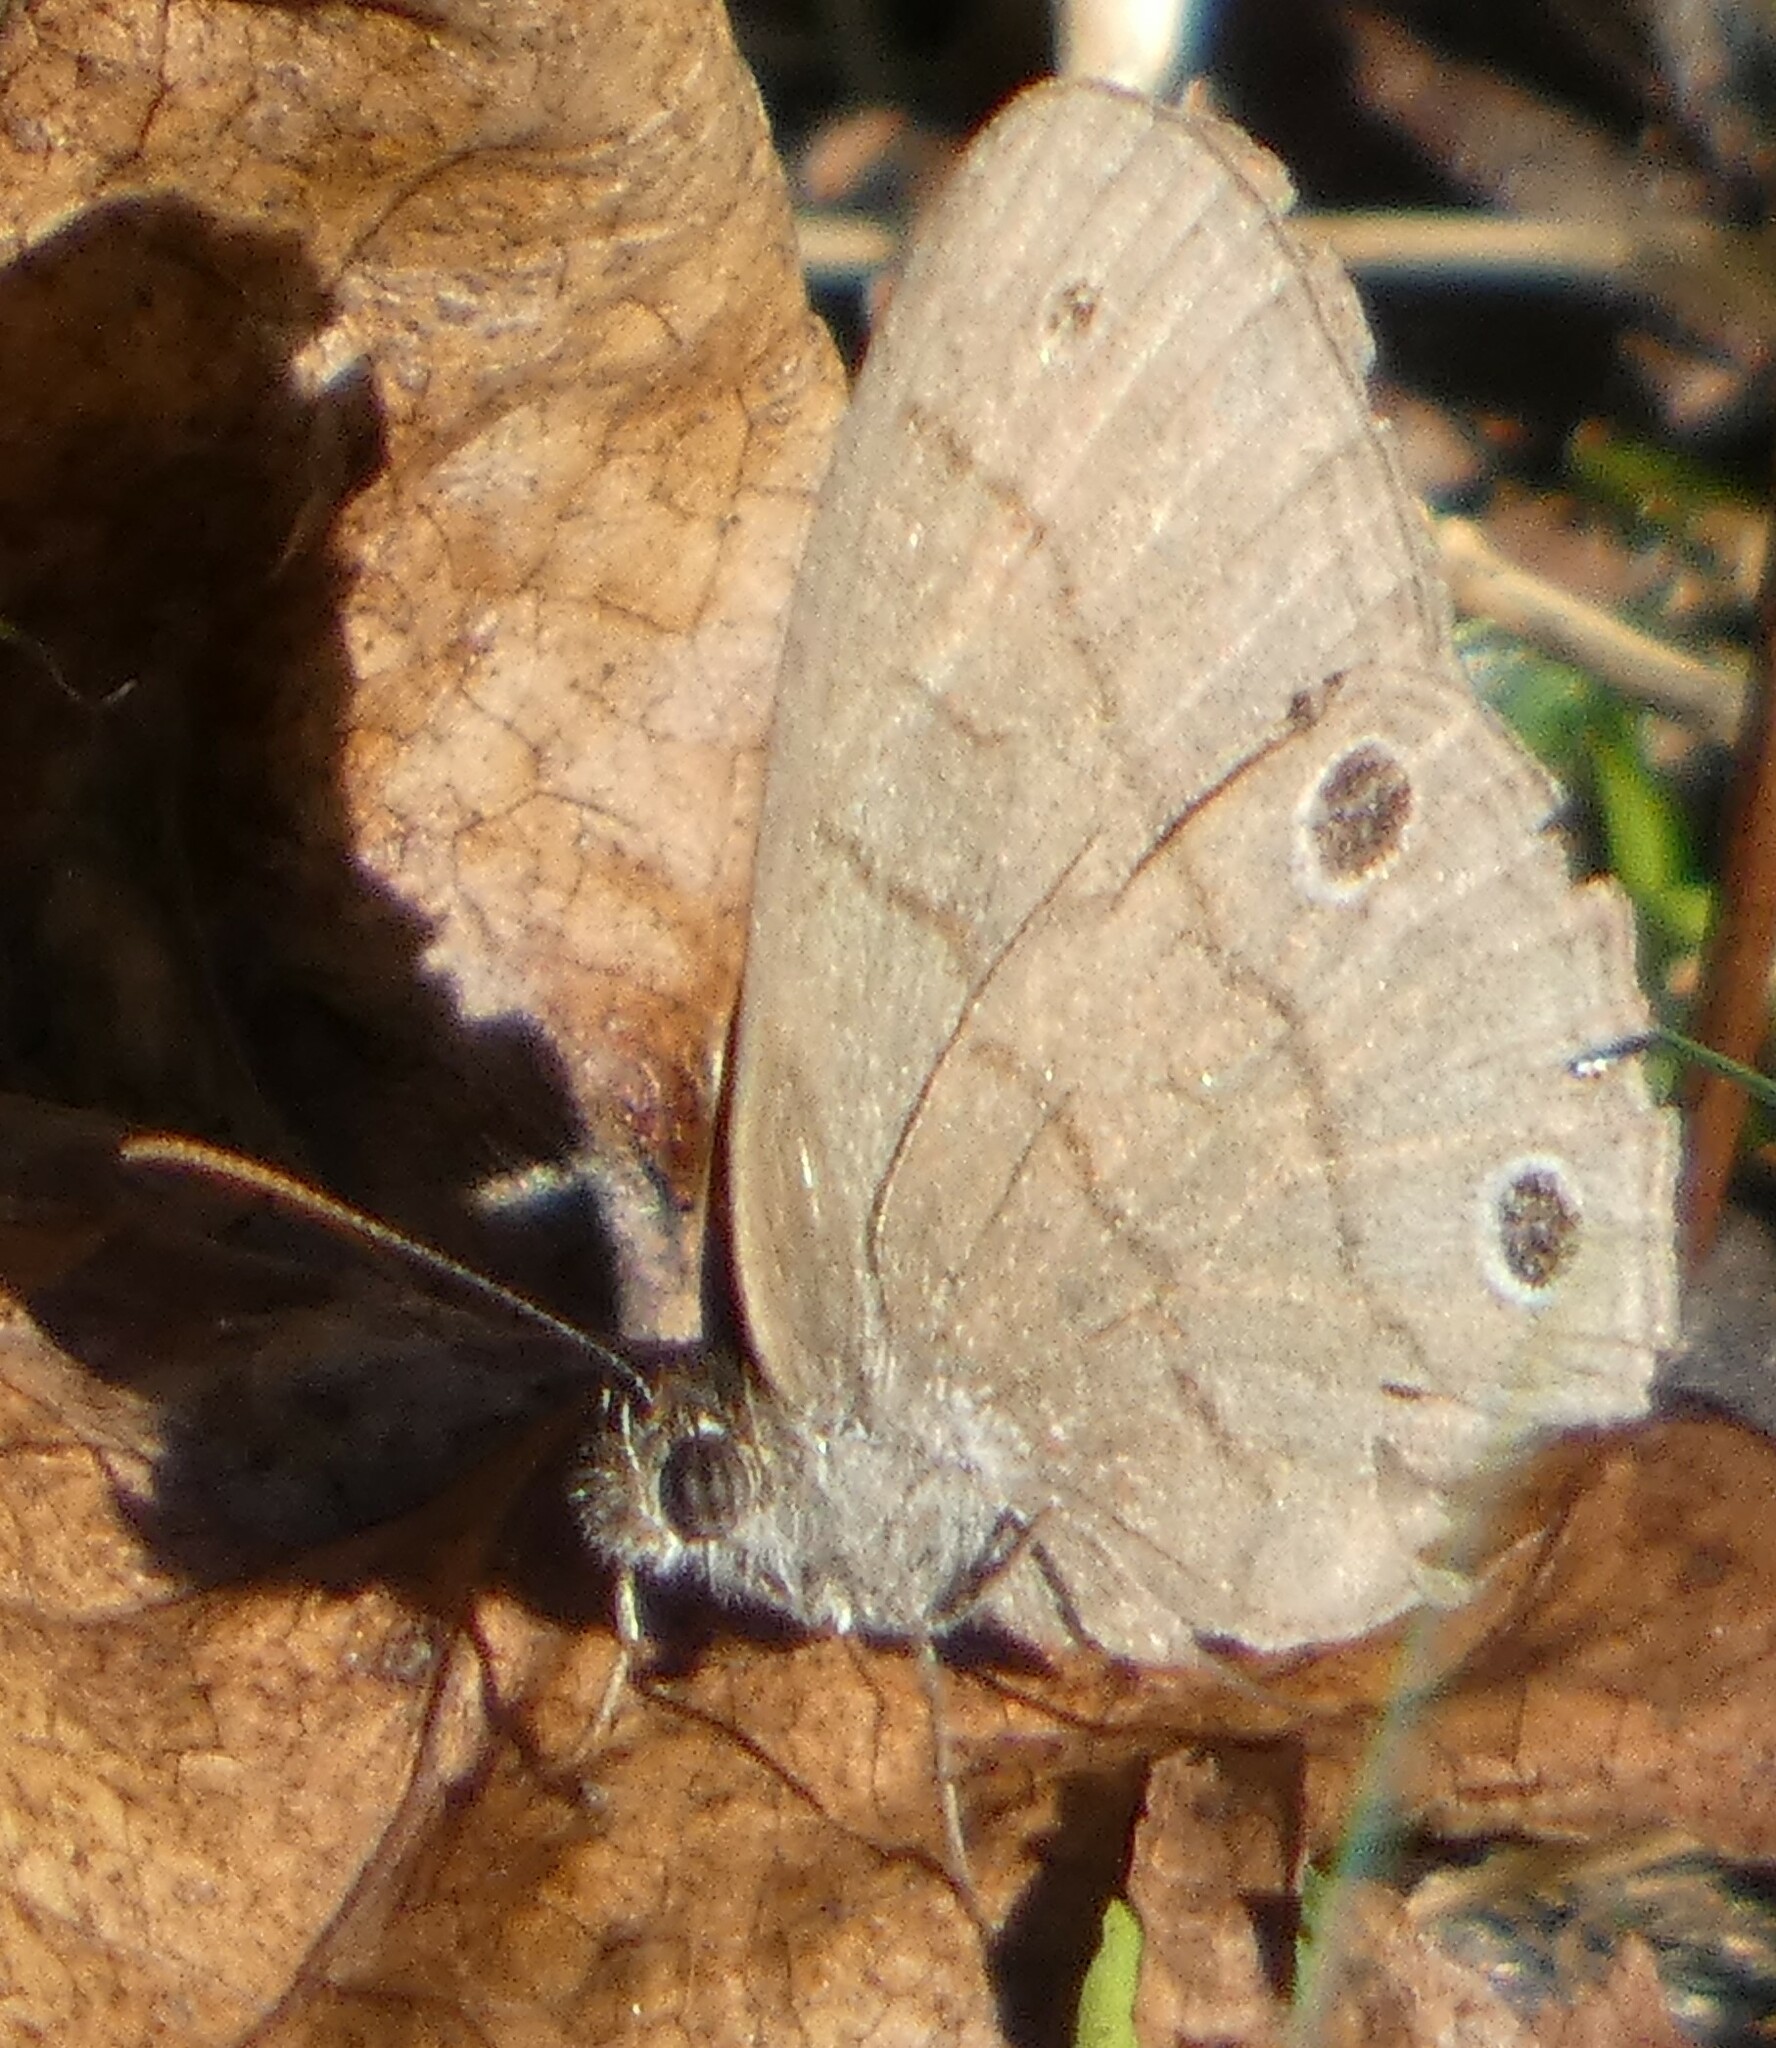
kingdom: Animalia
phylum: Arthropoda
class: Insecta
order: Lepidoptera
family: Nymphalidae
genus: Hermeuptychia
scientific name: Hermeuptychia hermes
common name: Hermes satyr
